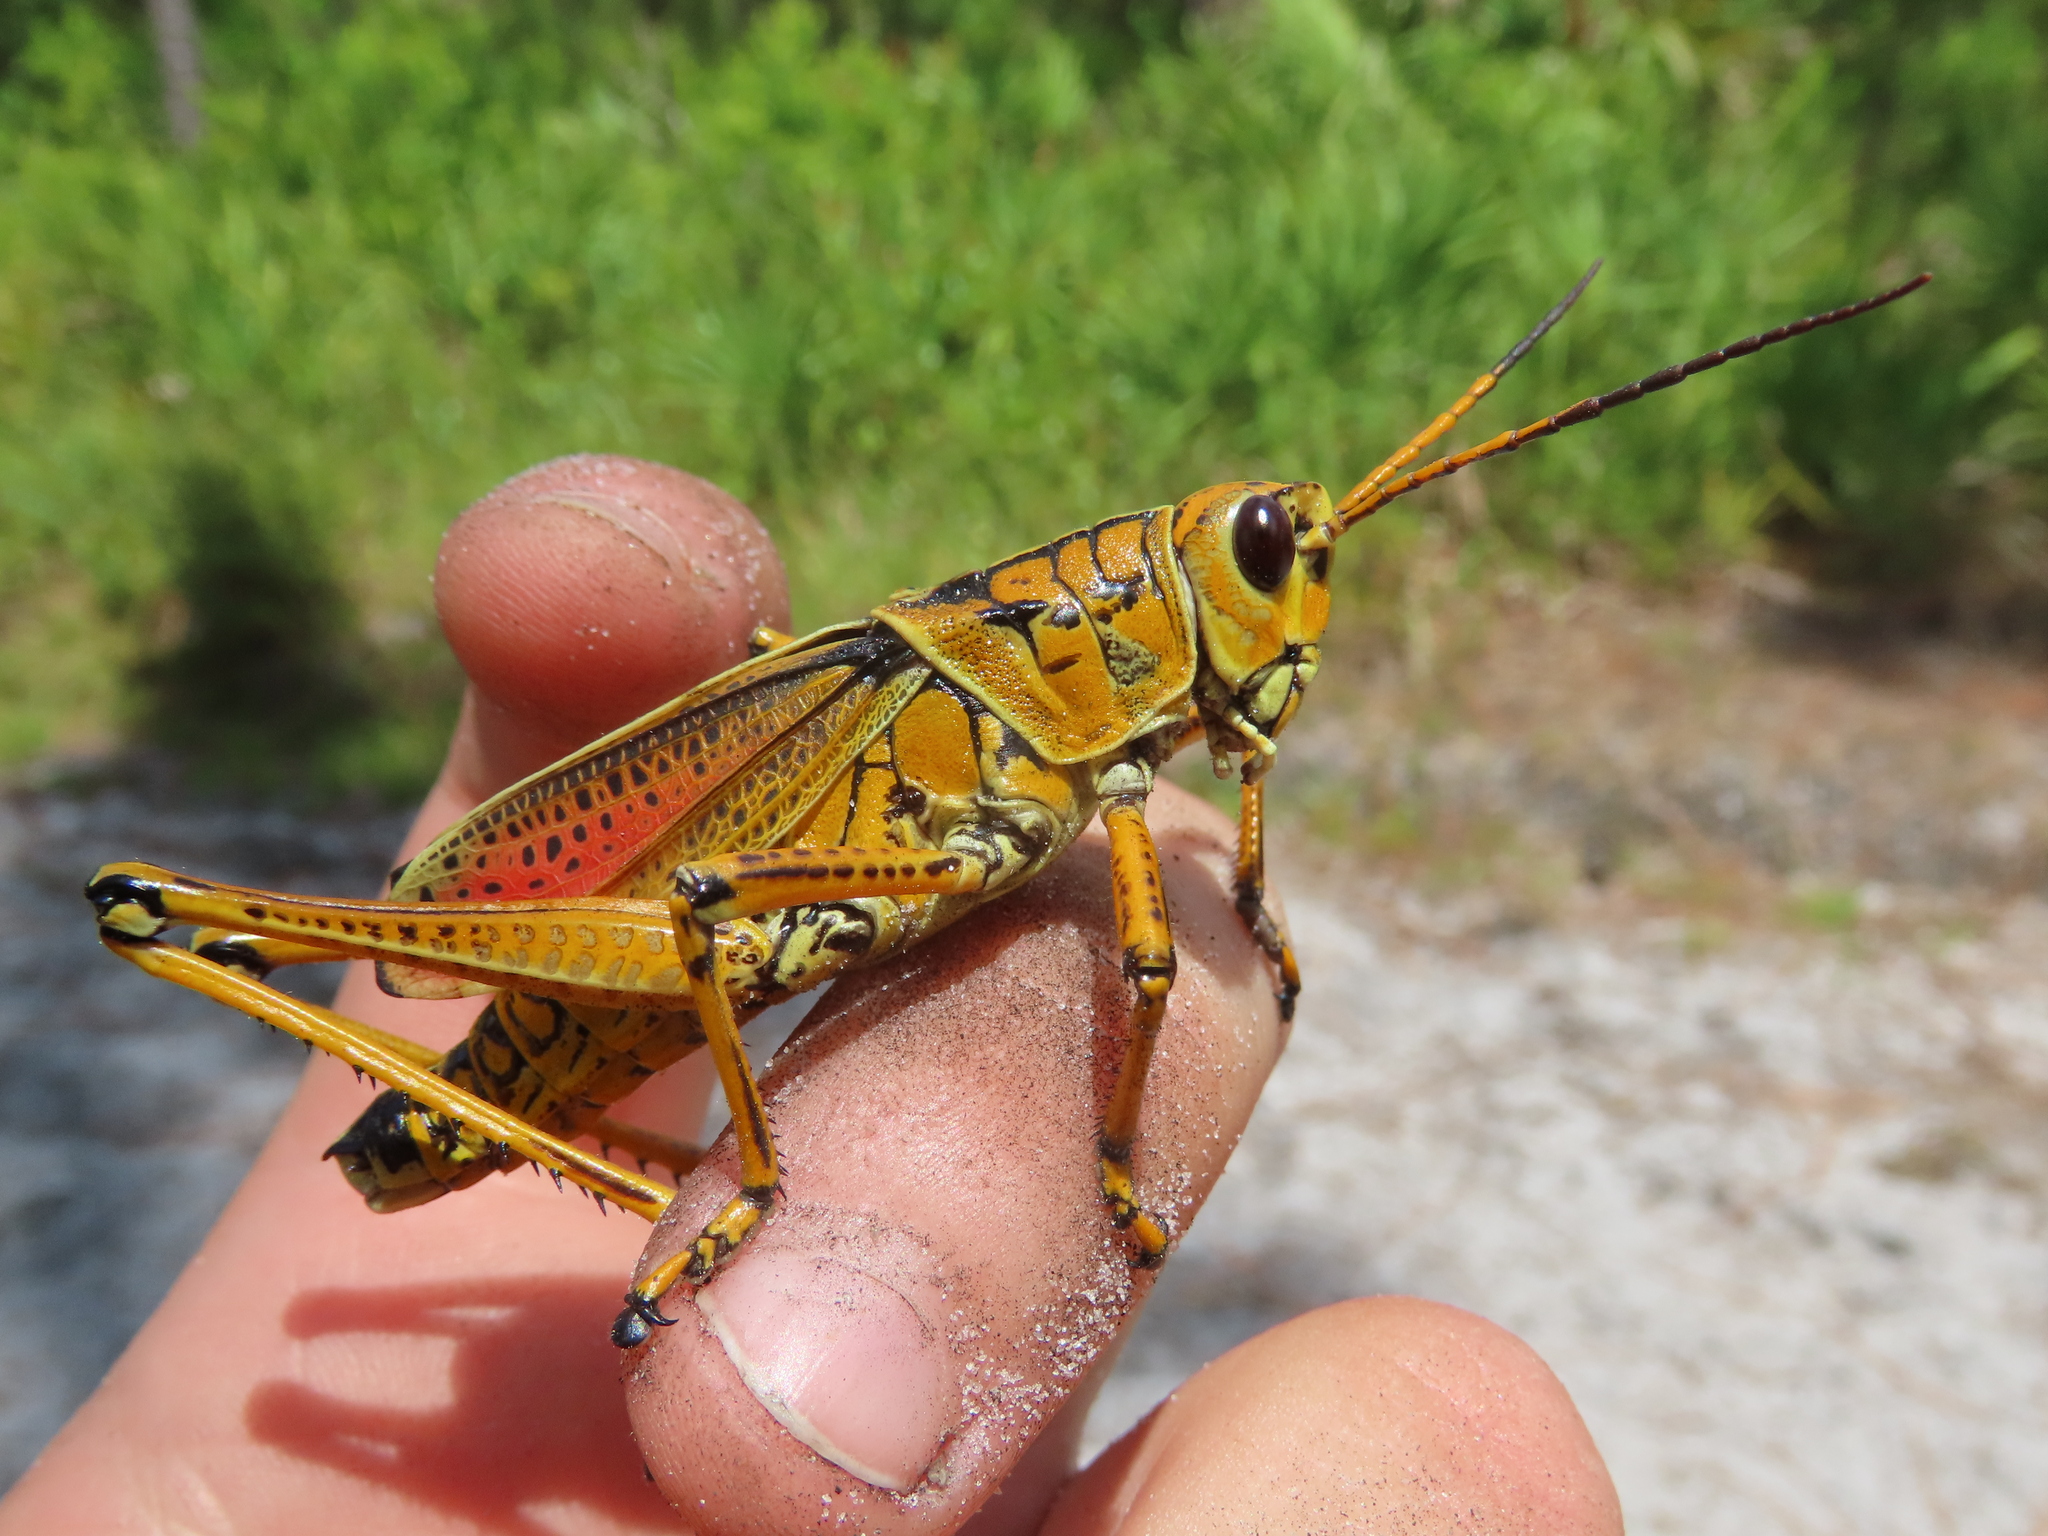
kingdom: Animalia
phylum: Arthropoda
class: Insecta
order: Orthoptera
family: Romaleidae
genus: Romalea
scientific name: Romalea microptera
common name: Eastern lubber grasshopper
